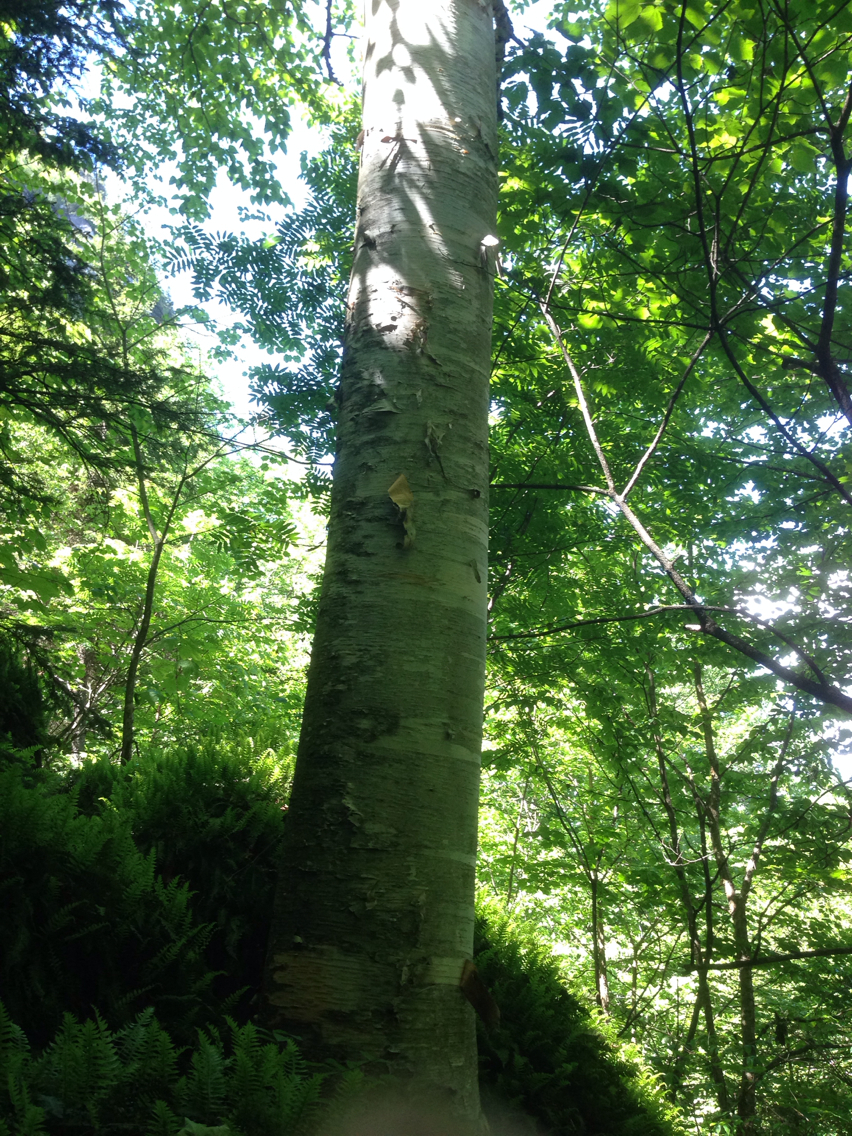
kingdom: Plantae
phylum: Tracheophyta
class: Magnoliopsida
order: Fagales
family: Betulaceae
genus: Betula
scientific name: Betula papyrifera
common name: Paper birch
